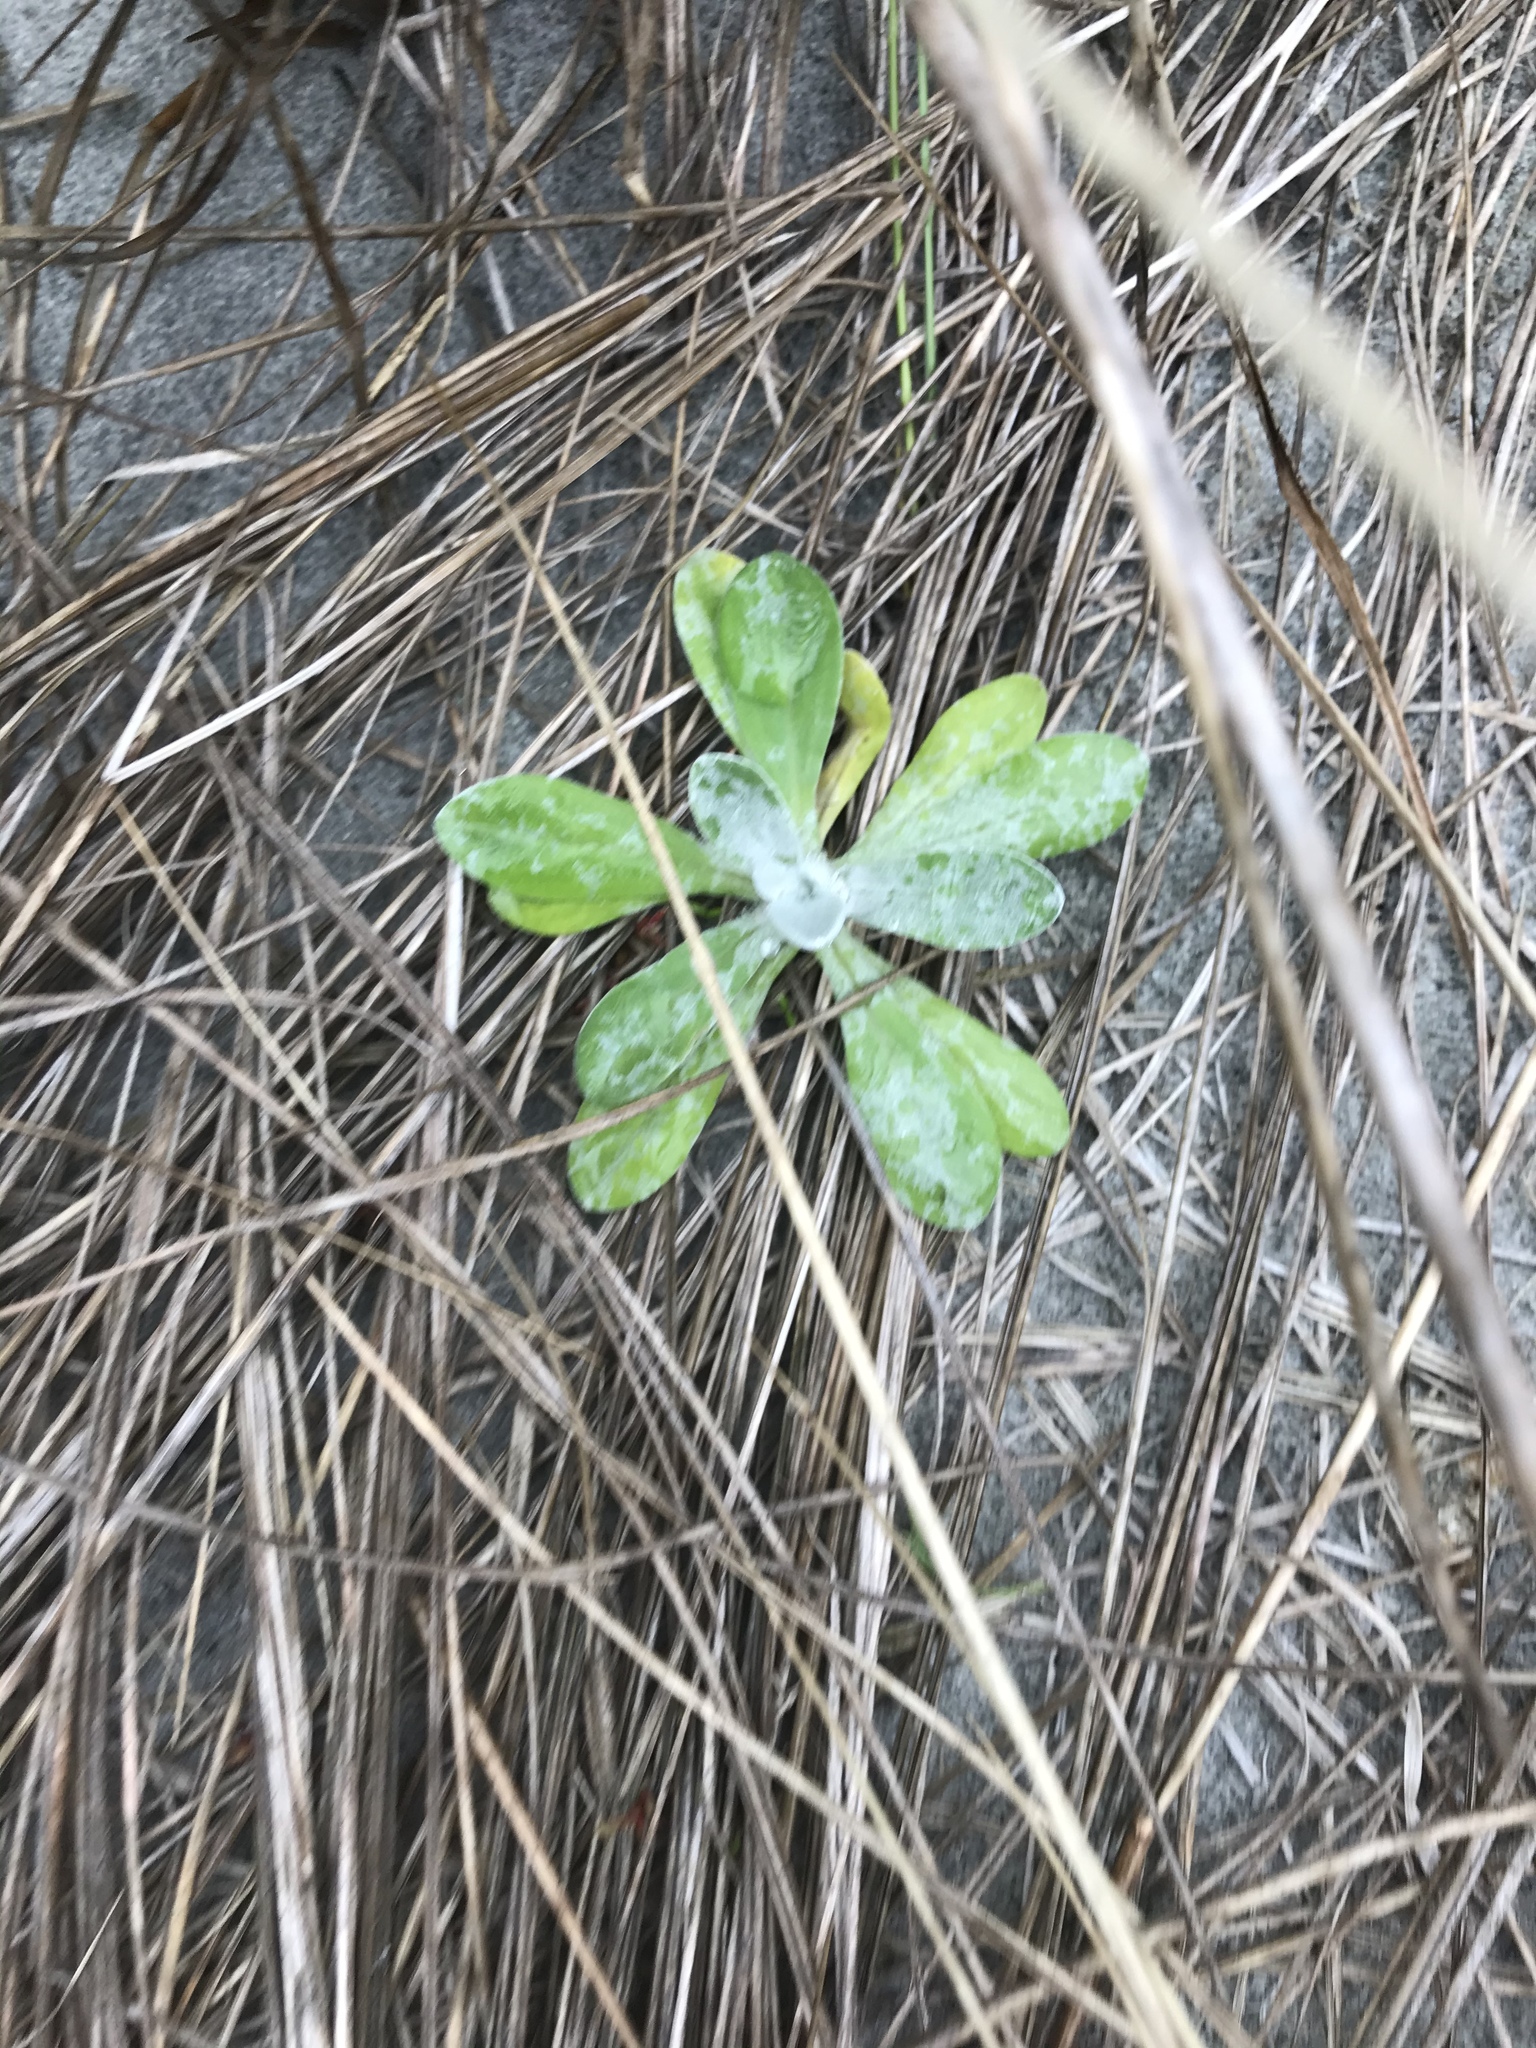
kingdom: Plantae
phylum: Tracheophyta
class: Magnoliopsida
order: Asterales
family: Asteraceae
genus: Helichrysum
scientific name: Helichrysum luteoalbum
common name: Daisy
